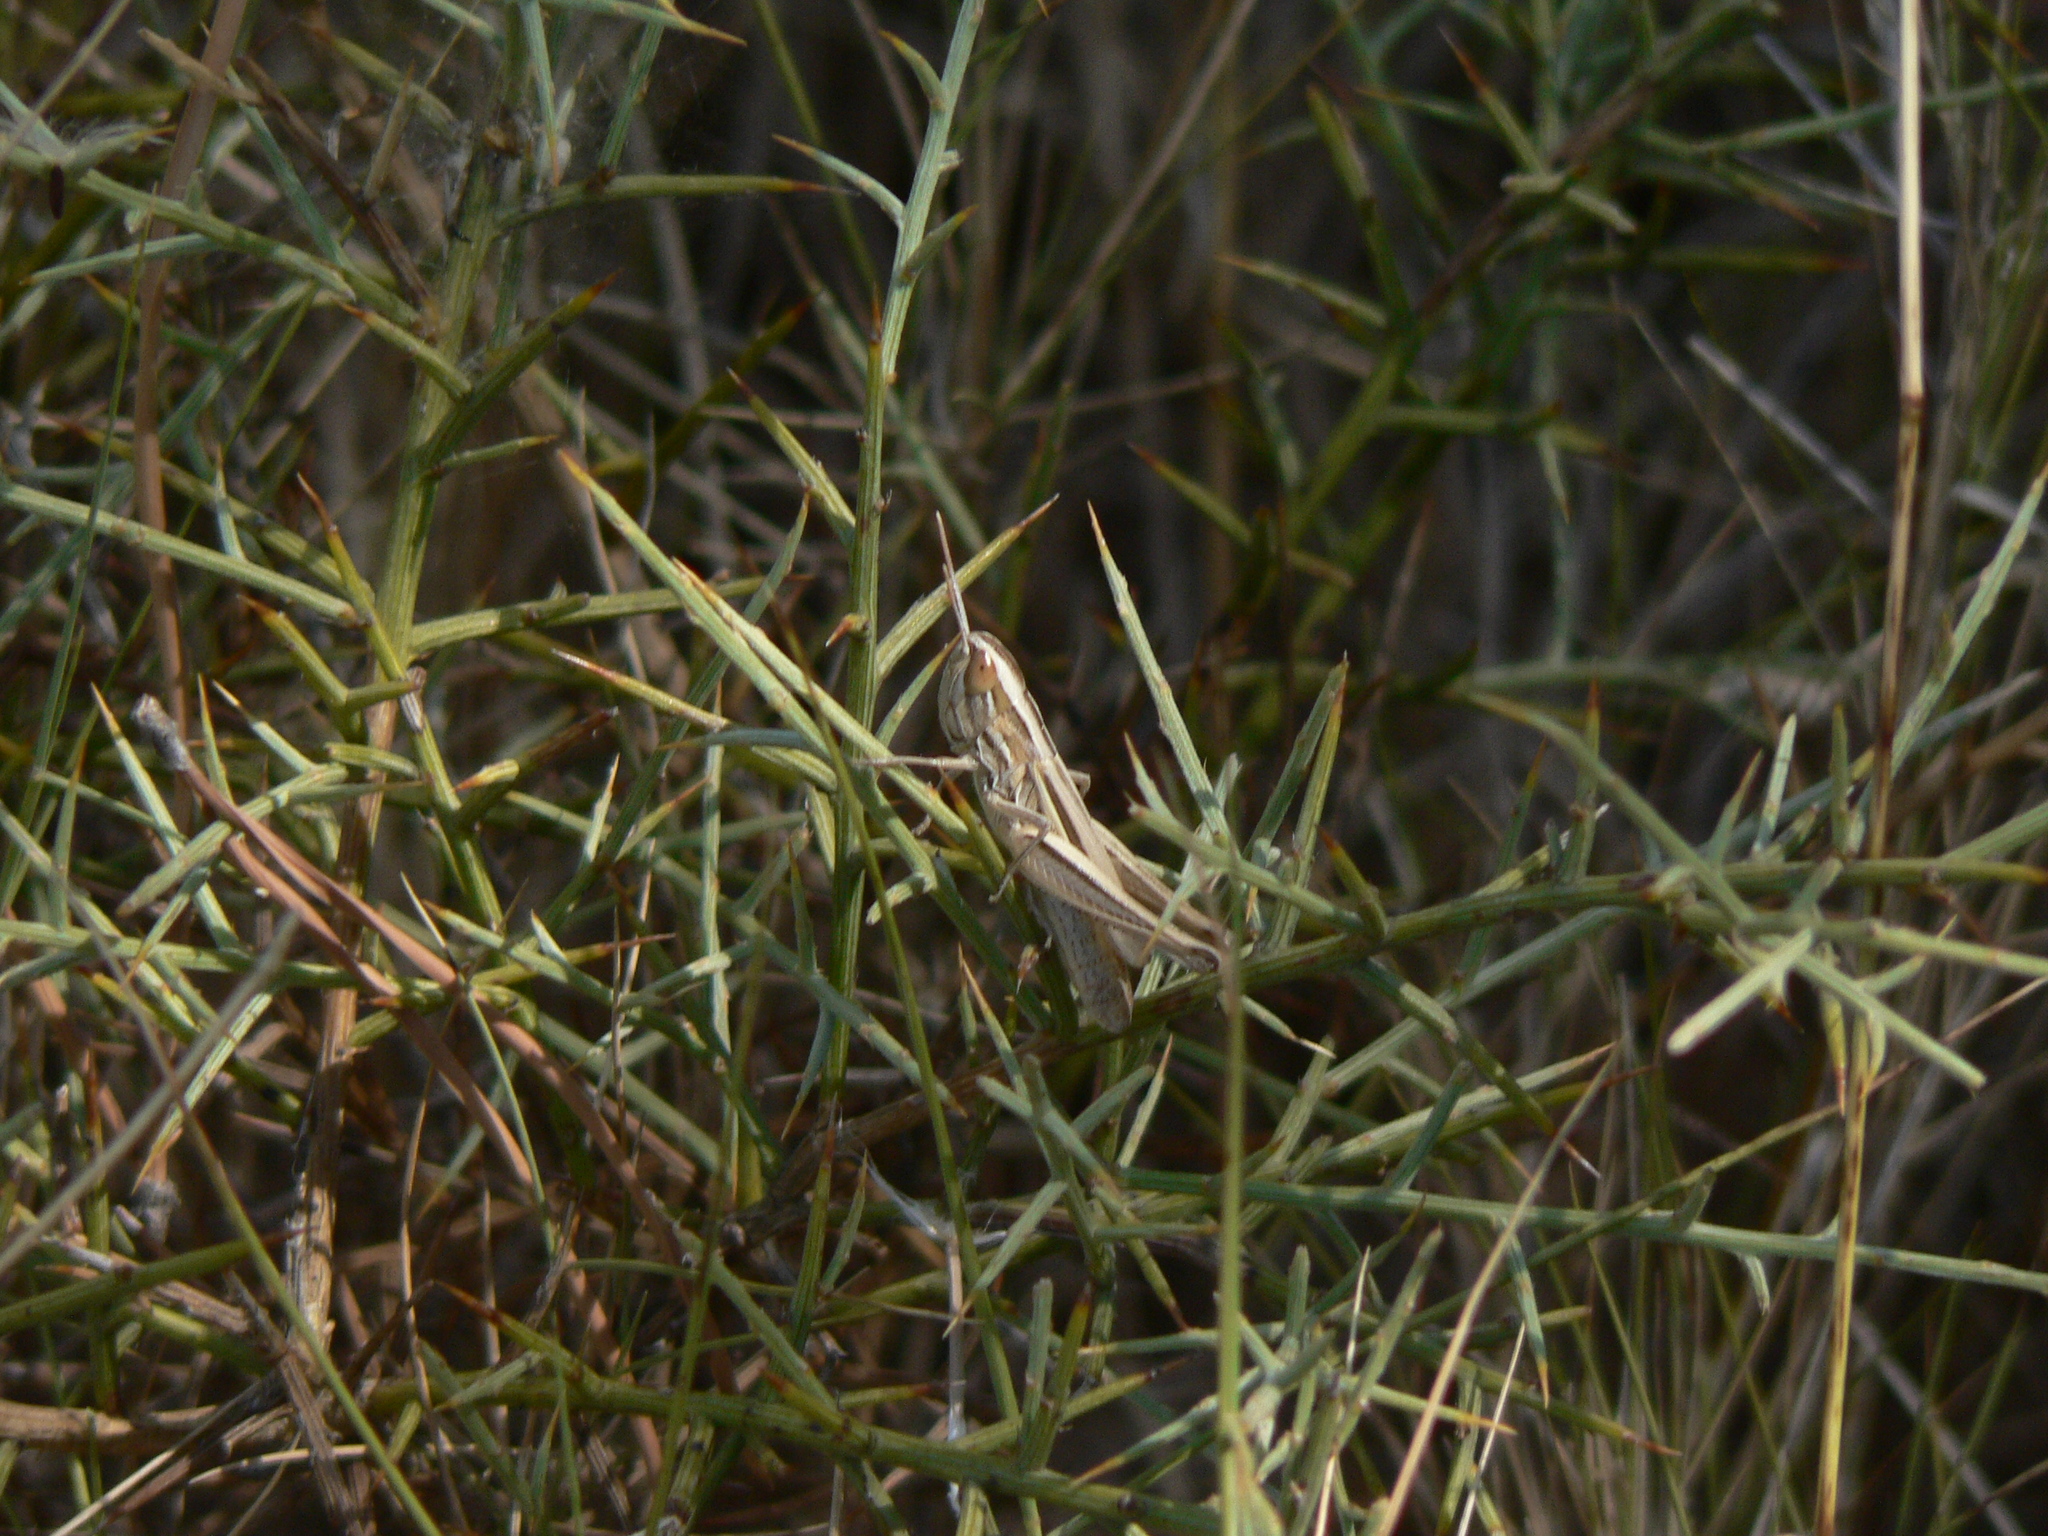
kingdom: Animalia
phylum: Arthropoda
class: Insecta
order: Orthoptera
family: Acrididae
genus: Euchorthippus
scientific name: Euchorthippus chopardi
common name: Iberian straw grasshopper
